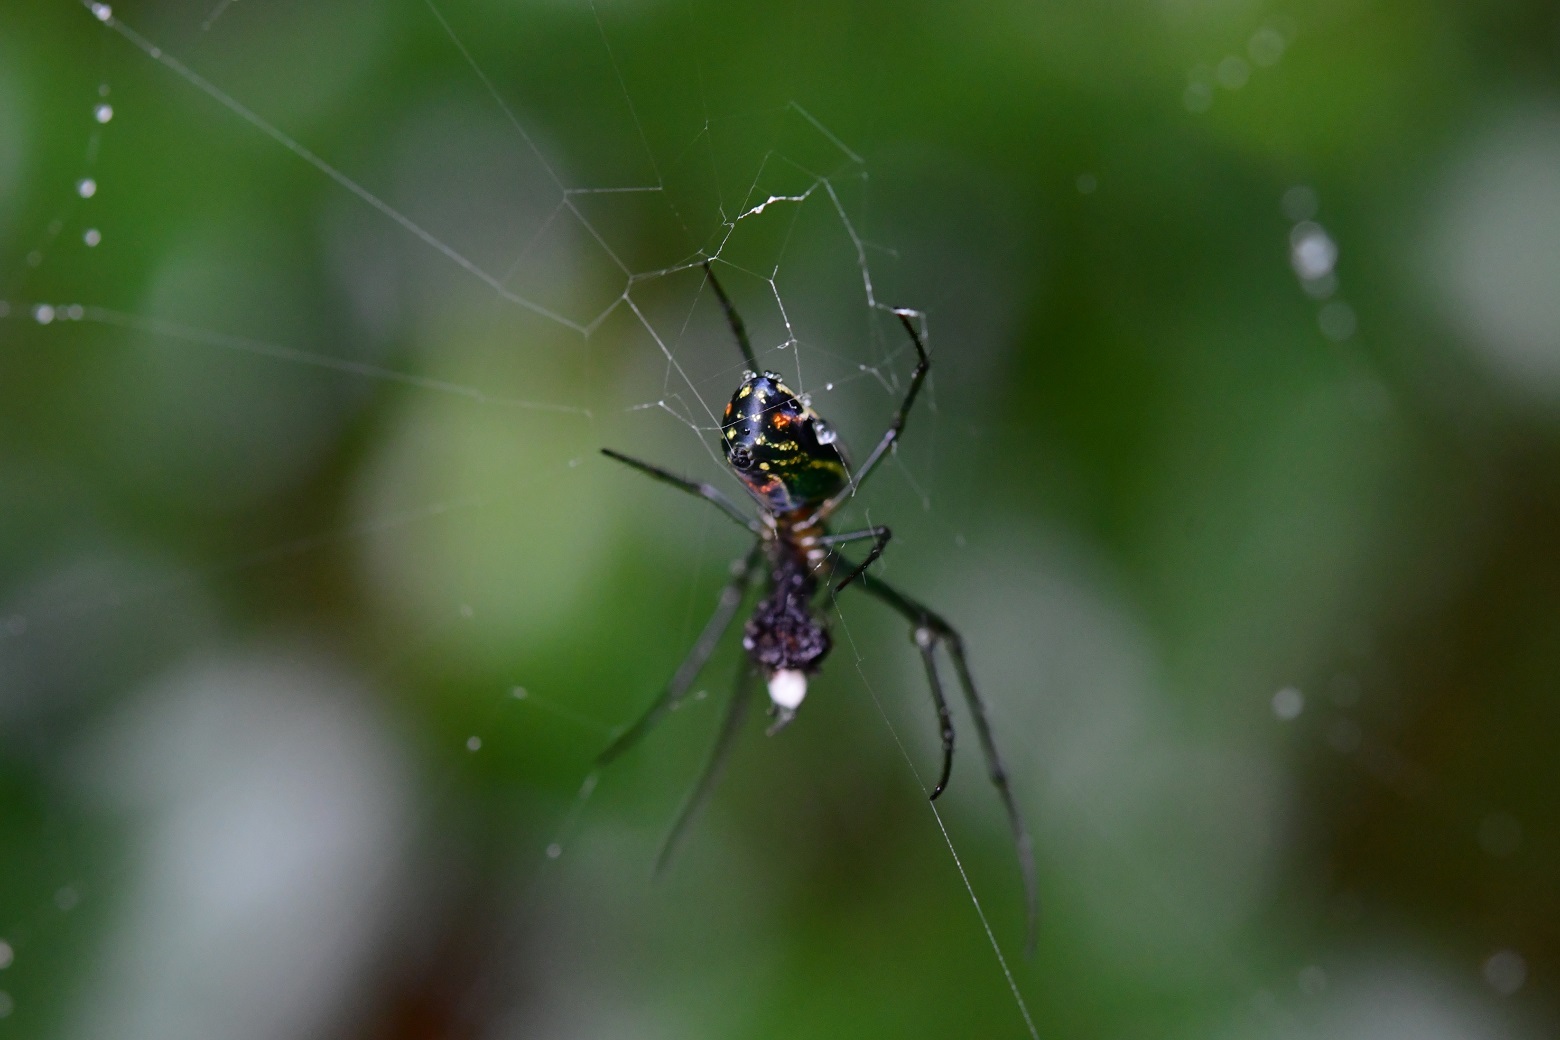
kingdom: Animalia
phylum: Arthropoda
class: Arachnida
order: Araneae
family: Tetragnathidae
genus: Leucauge
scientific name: Leucauge mariana
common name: Longjawed orb weavers
